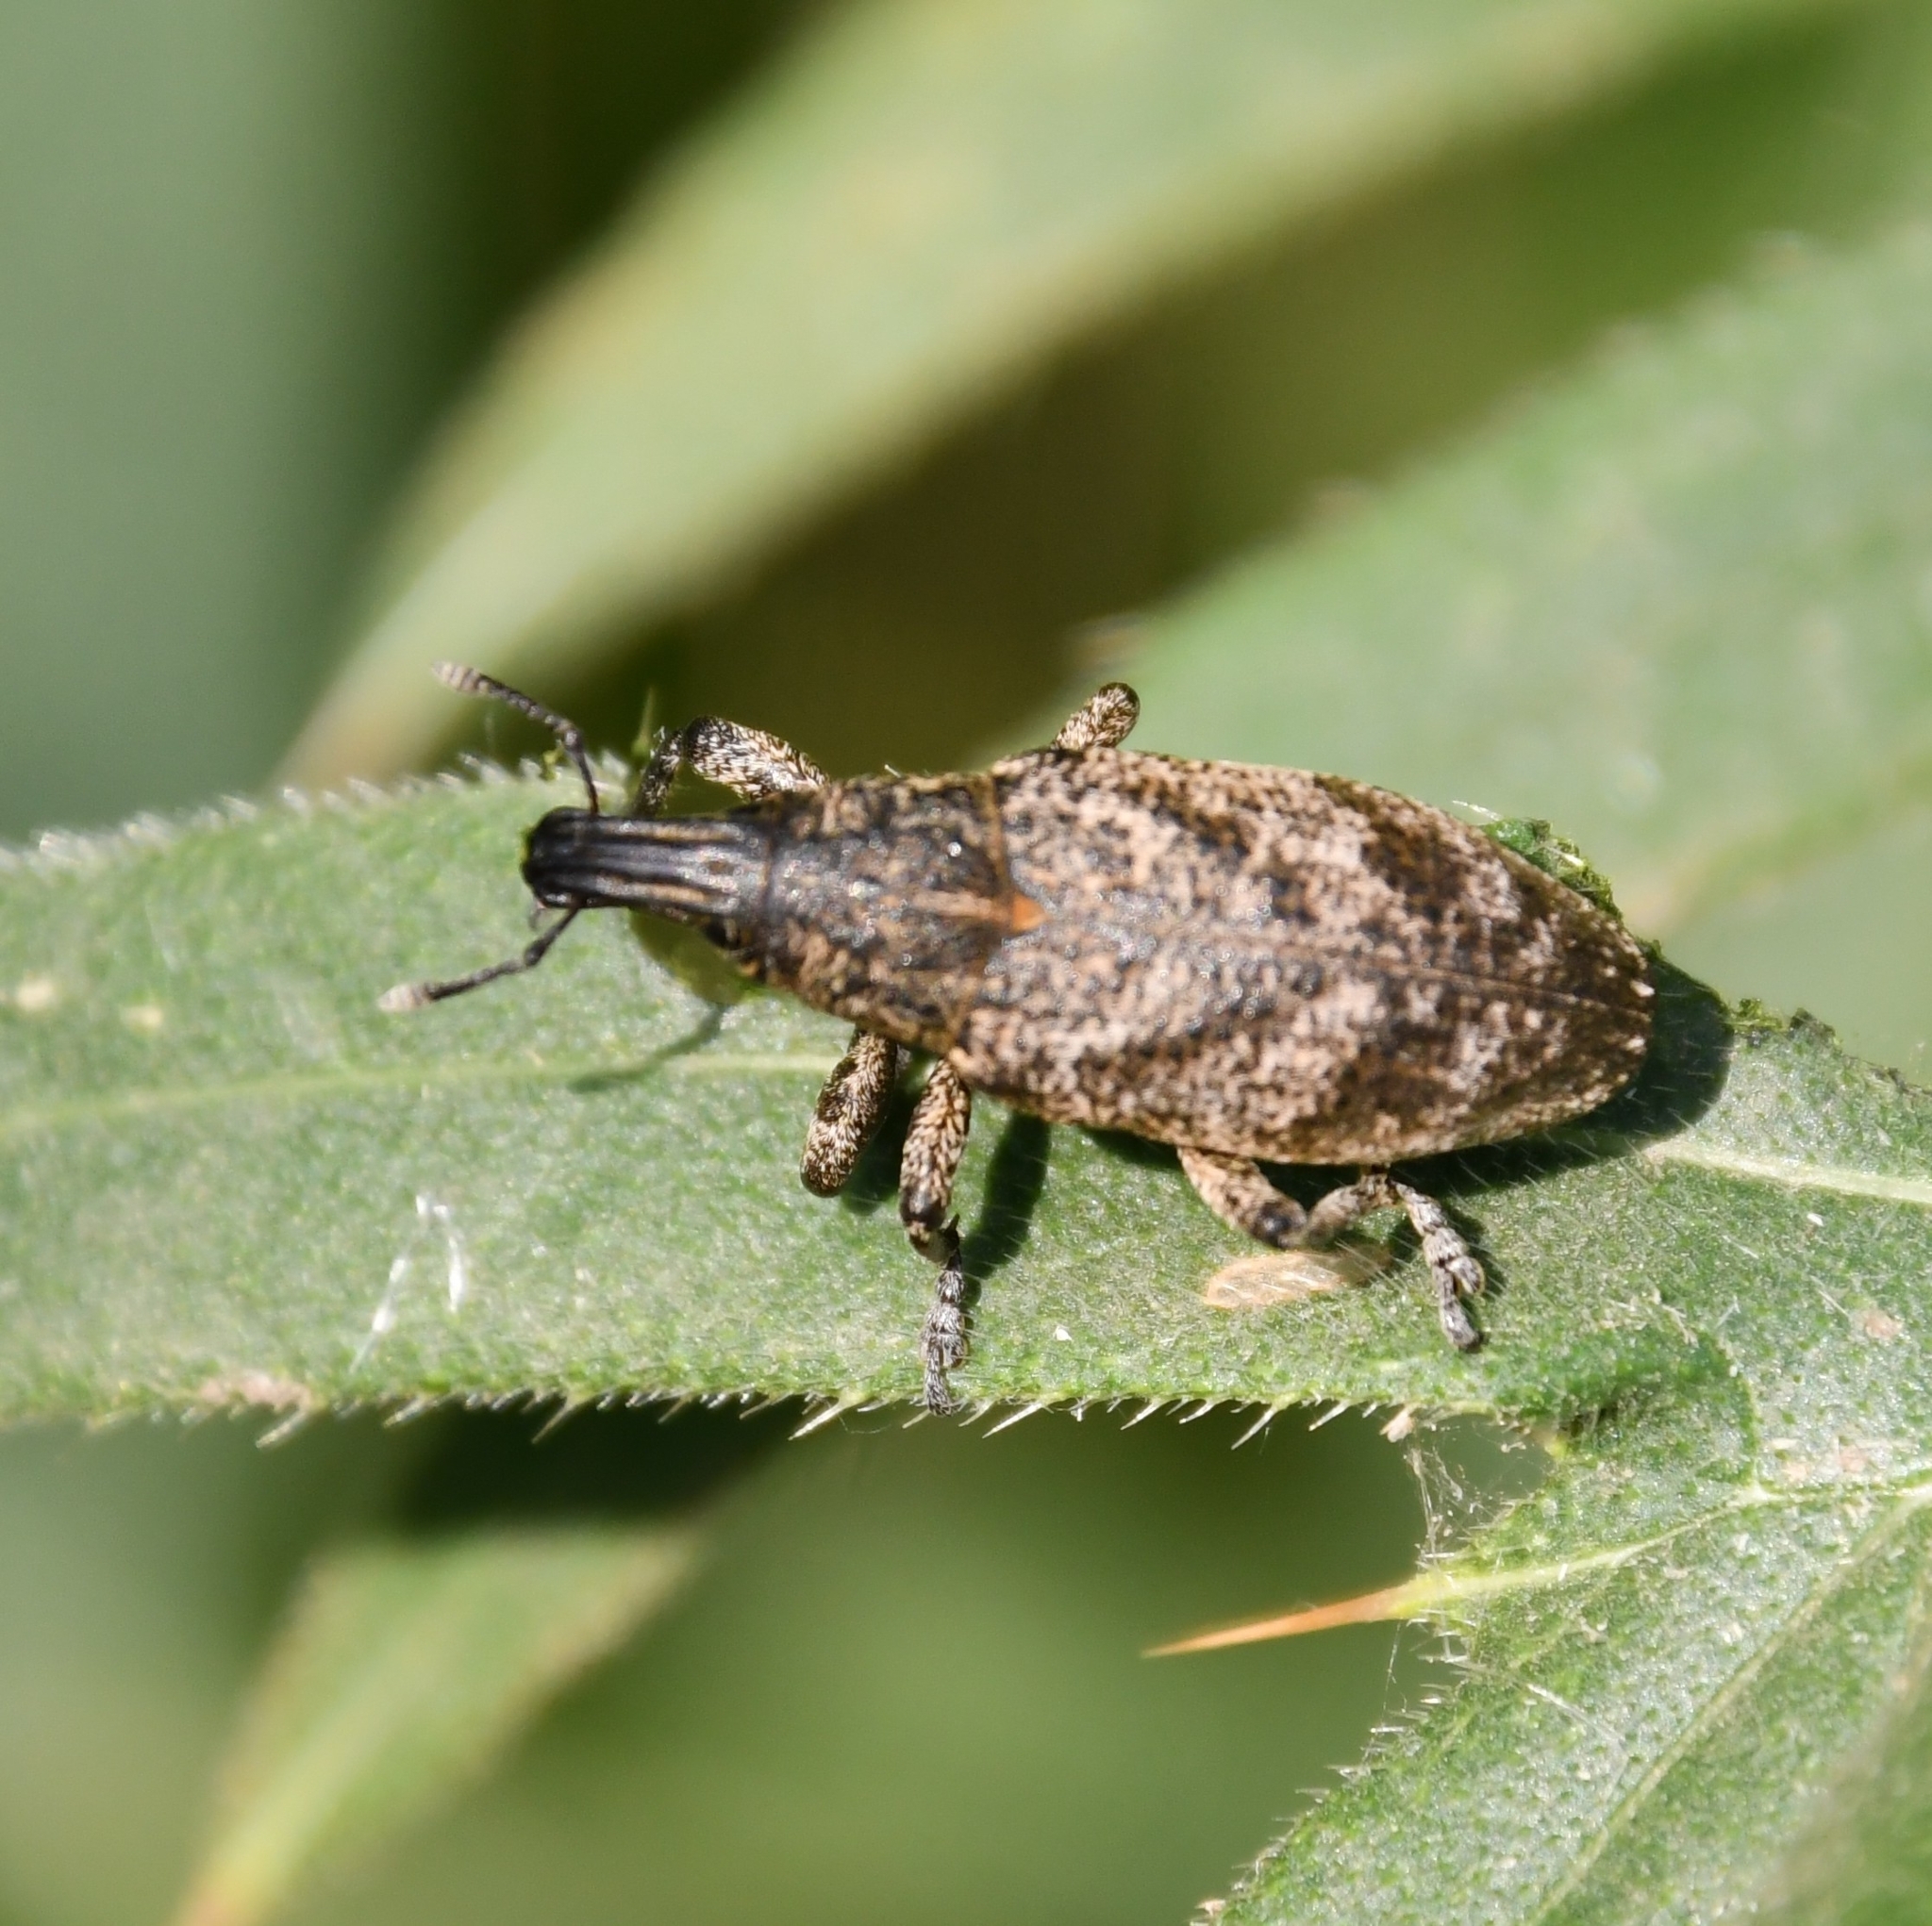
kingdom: Animalia
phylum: Arthropoda
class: Insecta
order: Coleoptera
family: Curculionidae
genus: Cleonis
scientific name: Cleonis pigra
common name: Large thistle weevil
